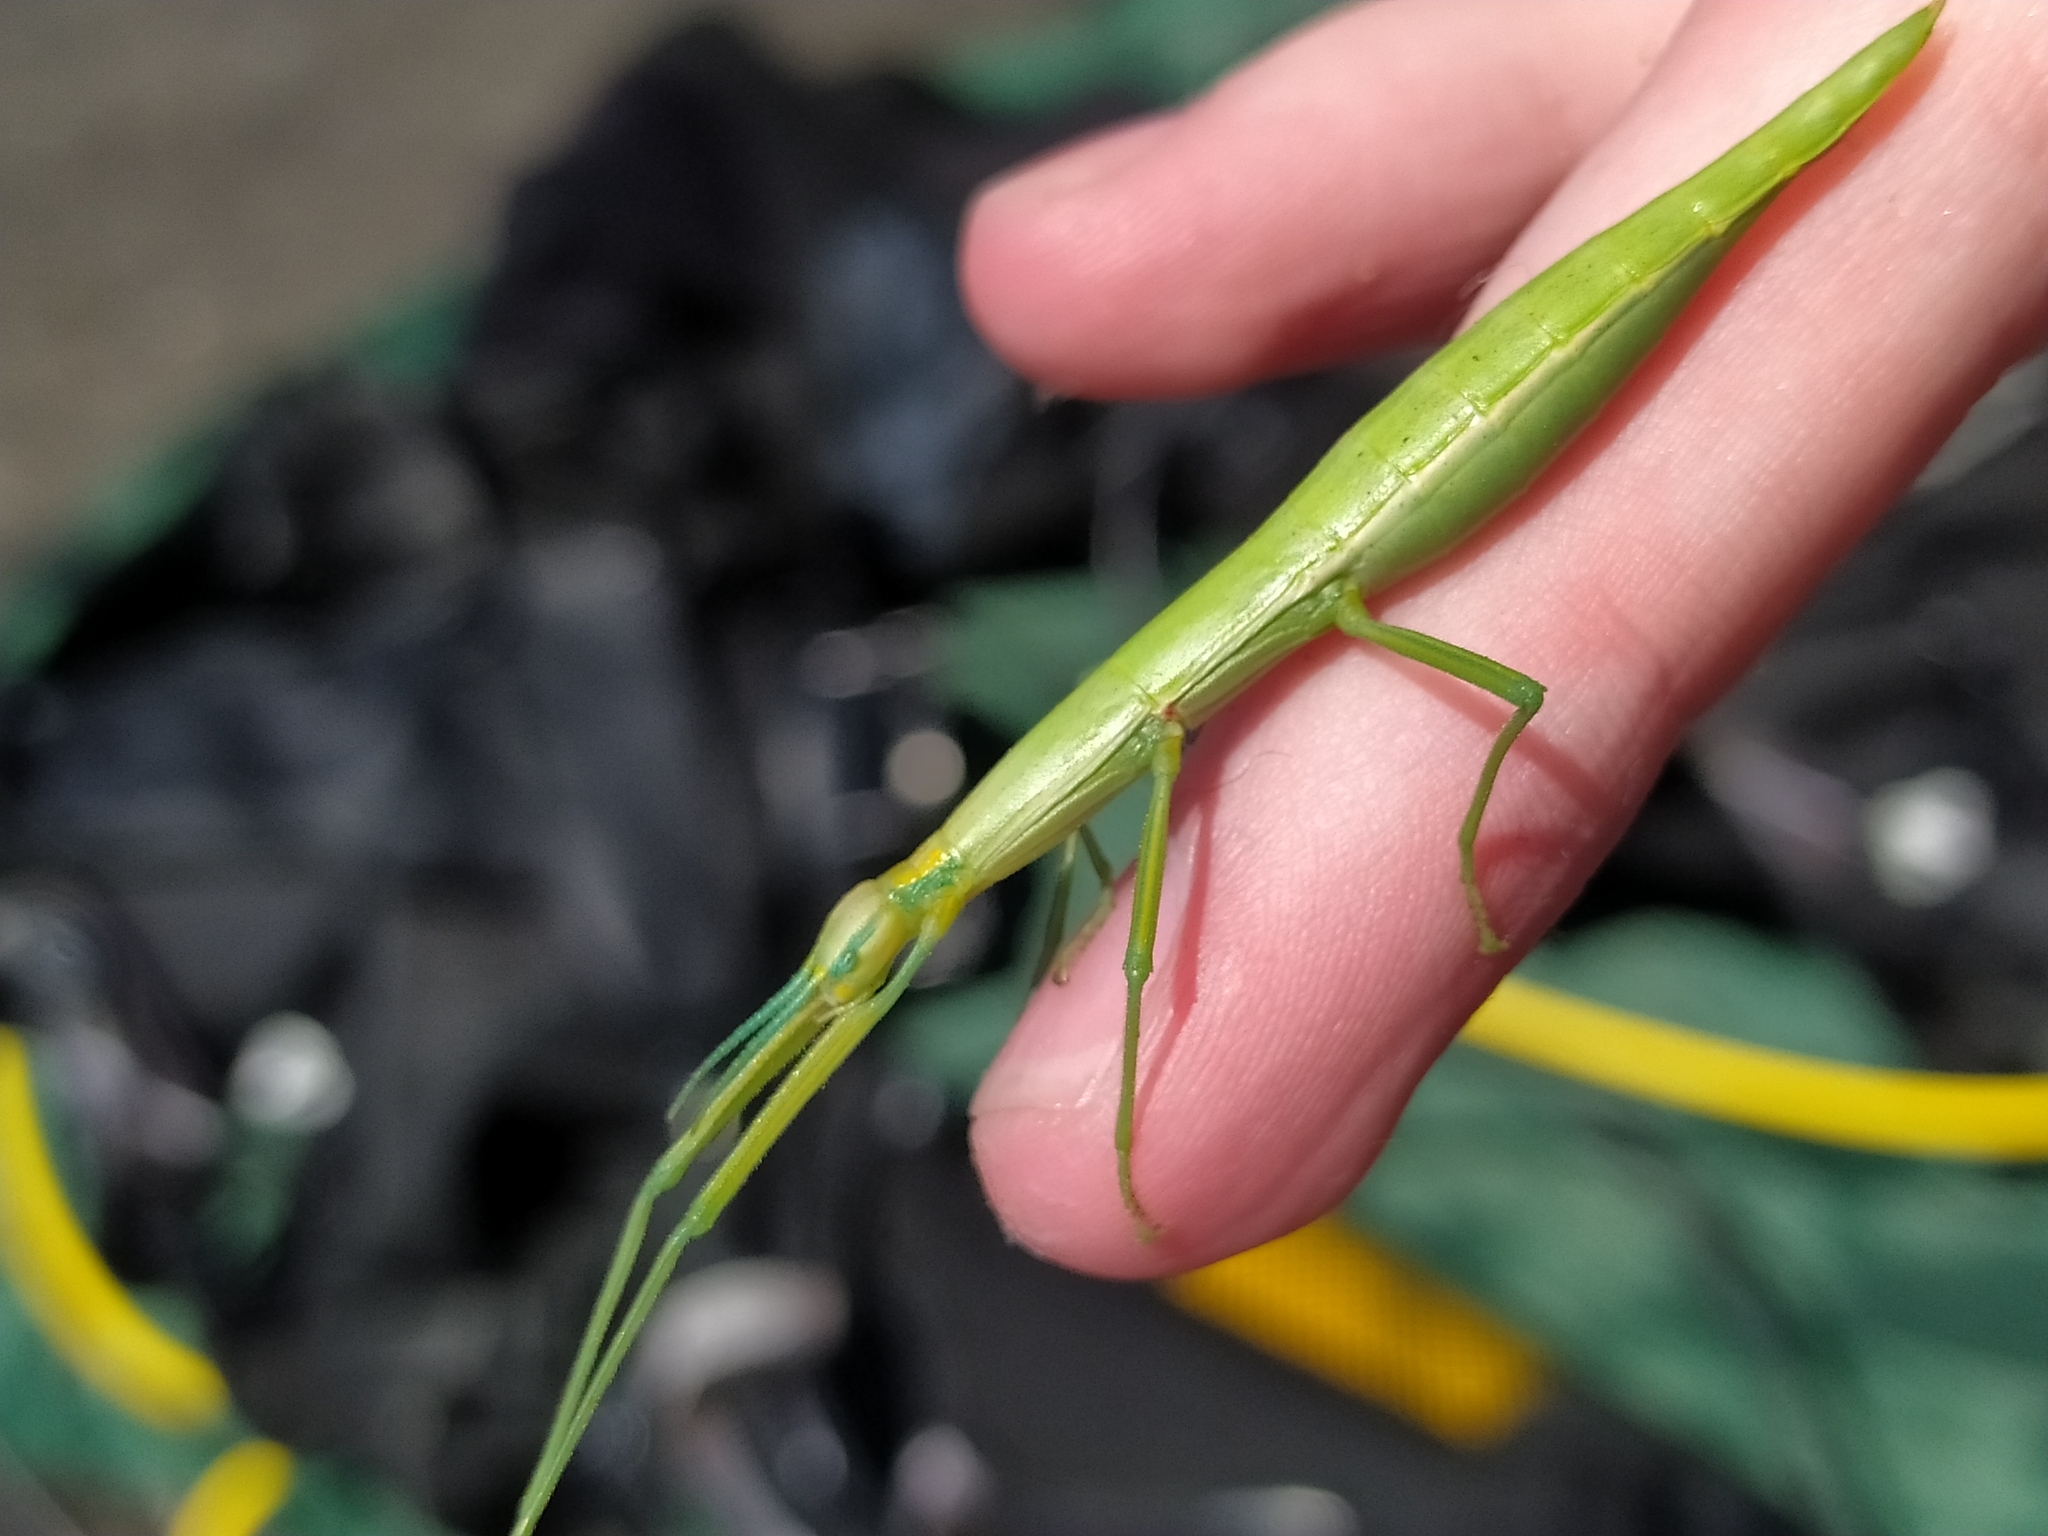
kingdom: Animalia
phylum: Arthropoda
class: Insecta
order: Phasmida
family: Bacillidae
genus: Macynia
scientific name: Macynia labiata
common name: Thunberg's stick insect
